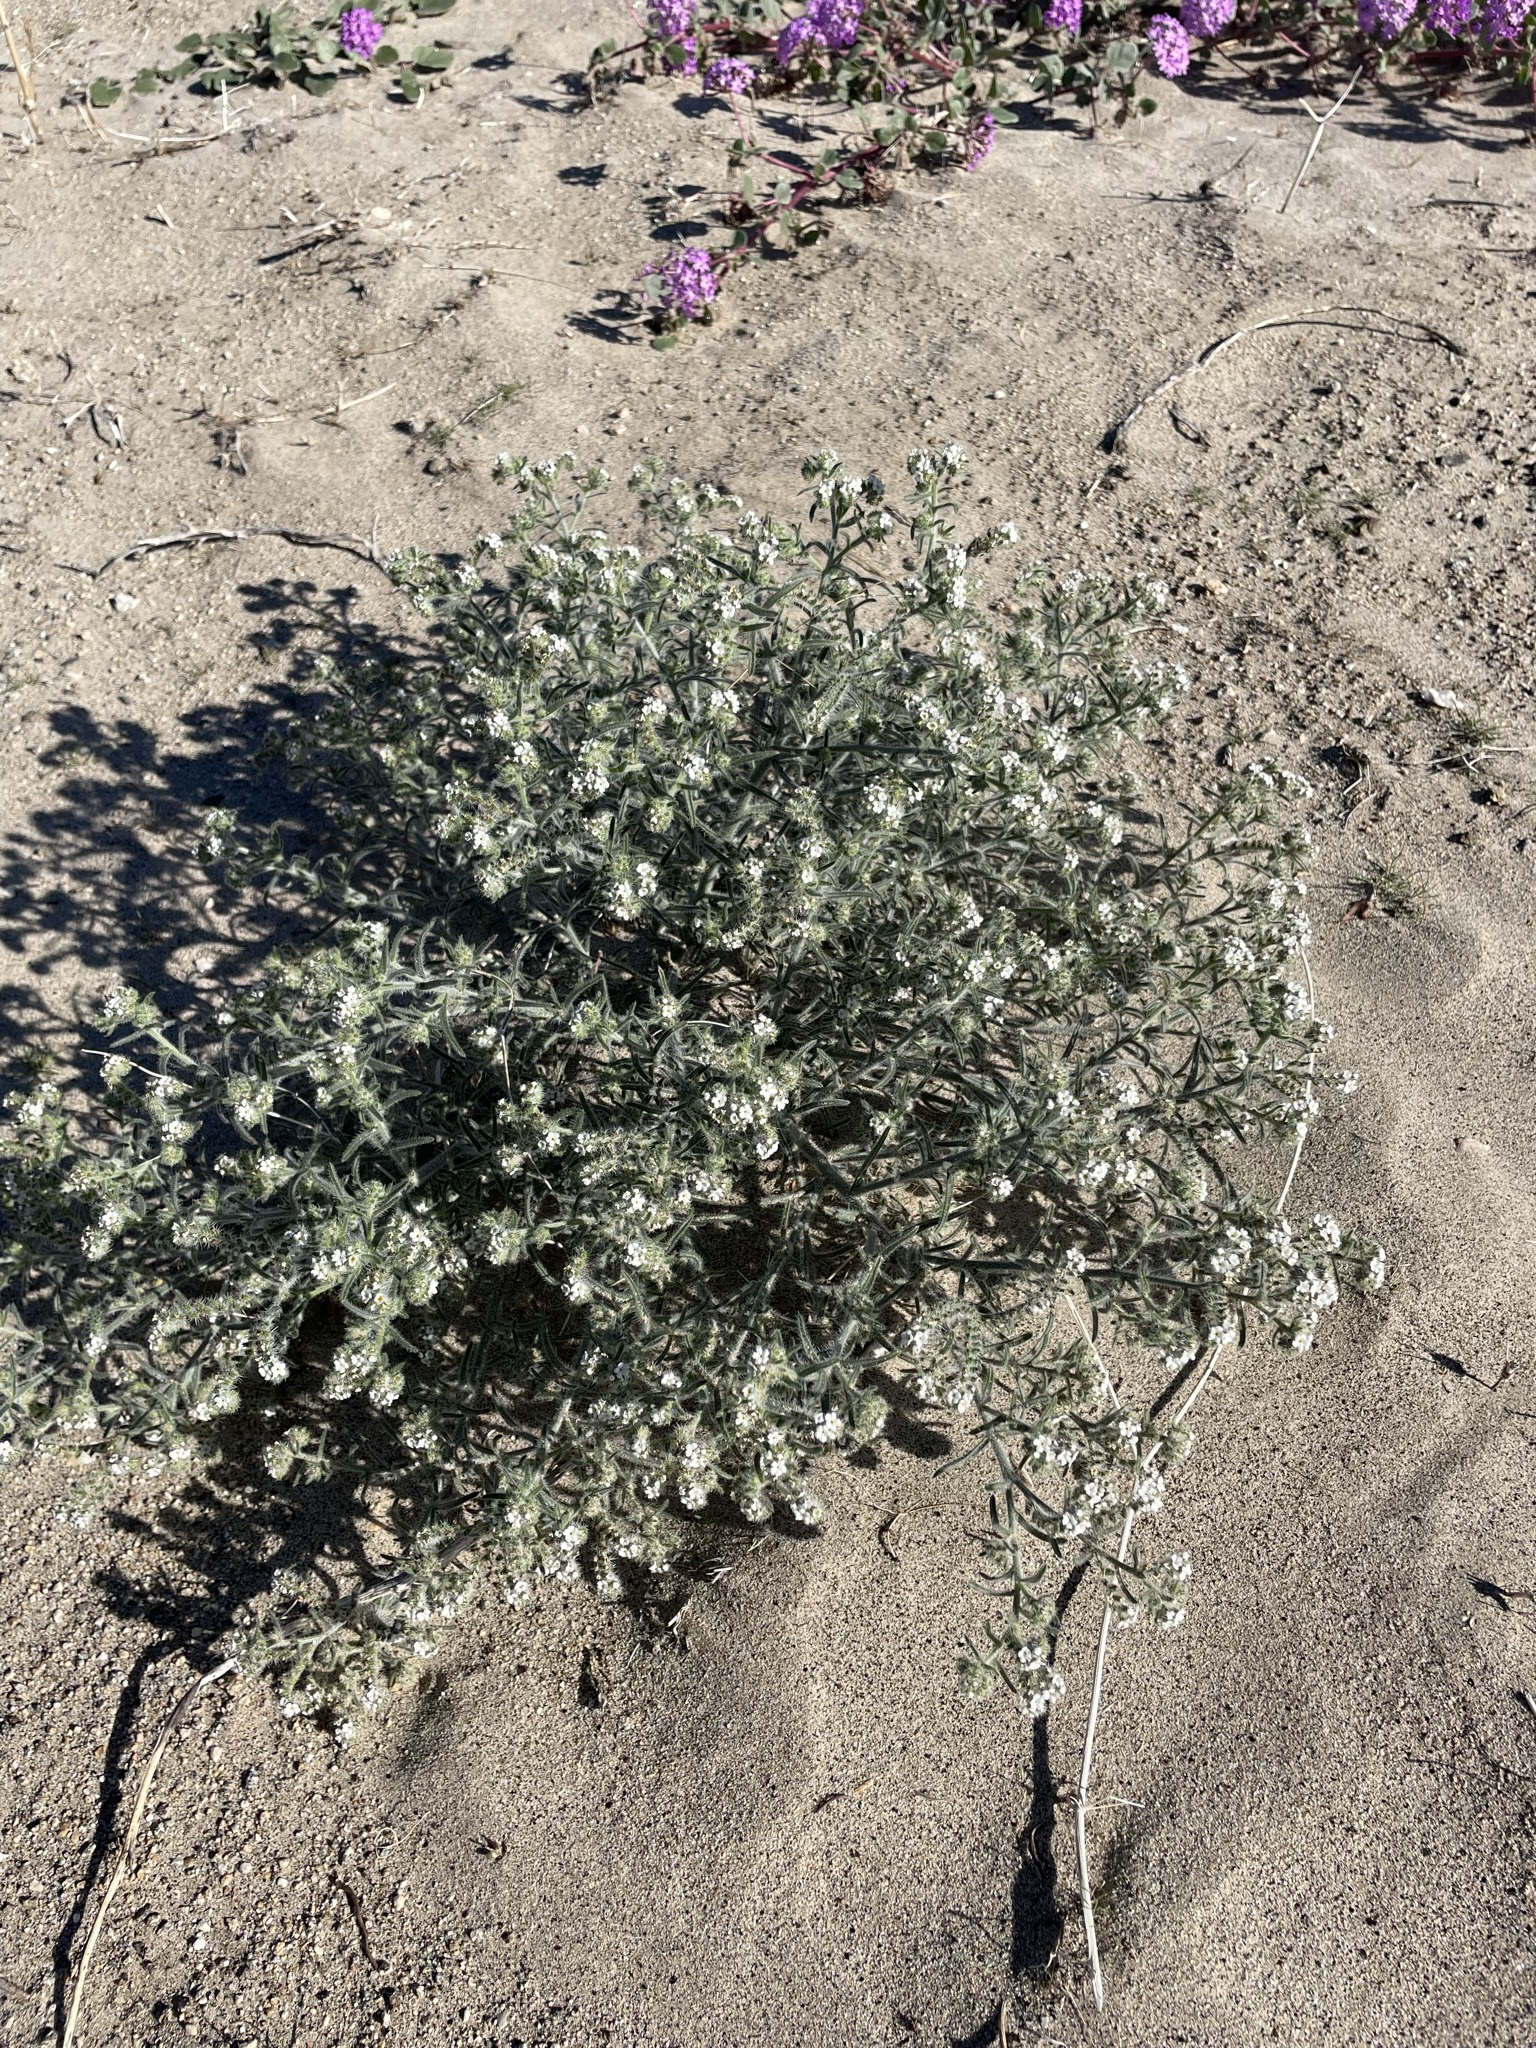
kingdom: Plantae
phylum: Tracheophyta
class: Magnoliopsida
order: Boraginales
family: Boraginaceae
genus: Johnstonella
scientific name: Johnstonella angustifolia
